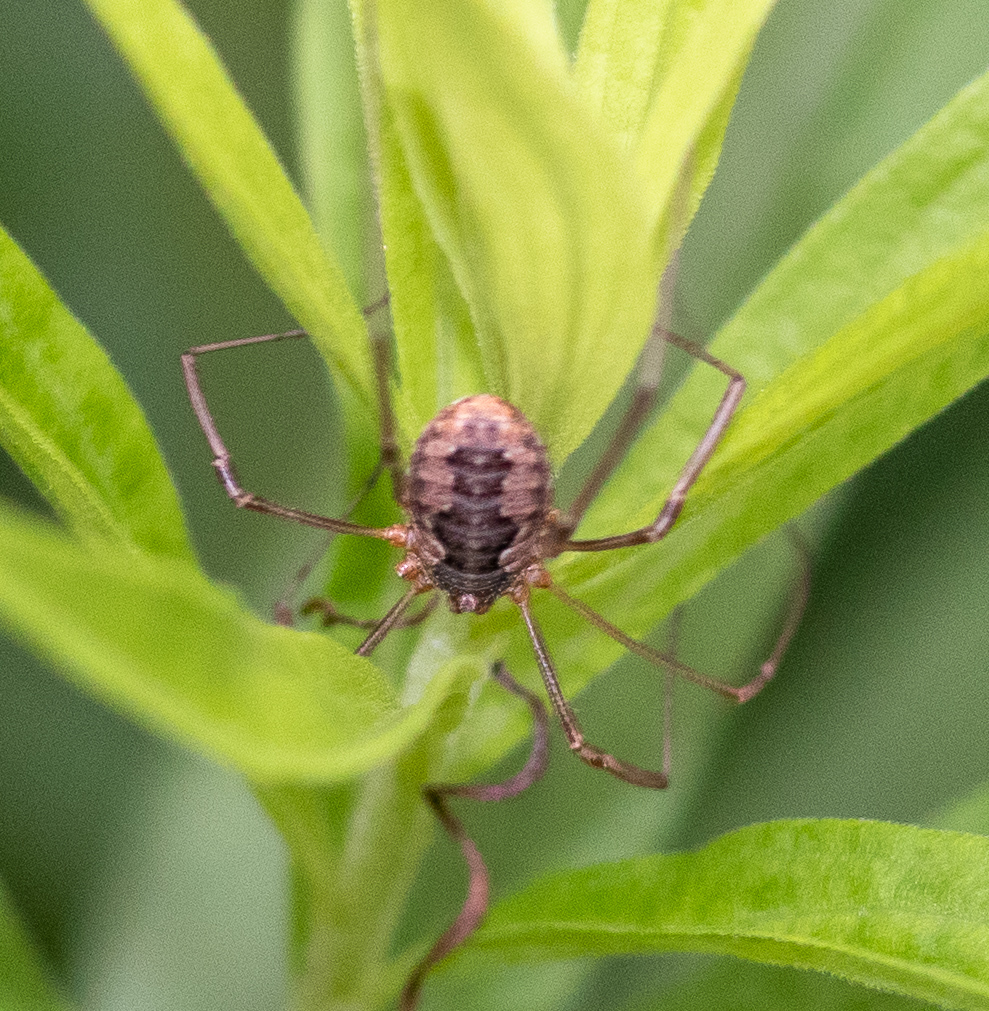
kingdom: Animalia
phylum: Arthropoda
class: Arachnida
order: Opiliones
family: Phalangiidae
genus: Phalangium
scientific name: Phalangium opilio
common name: Daddy longleg
